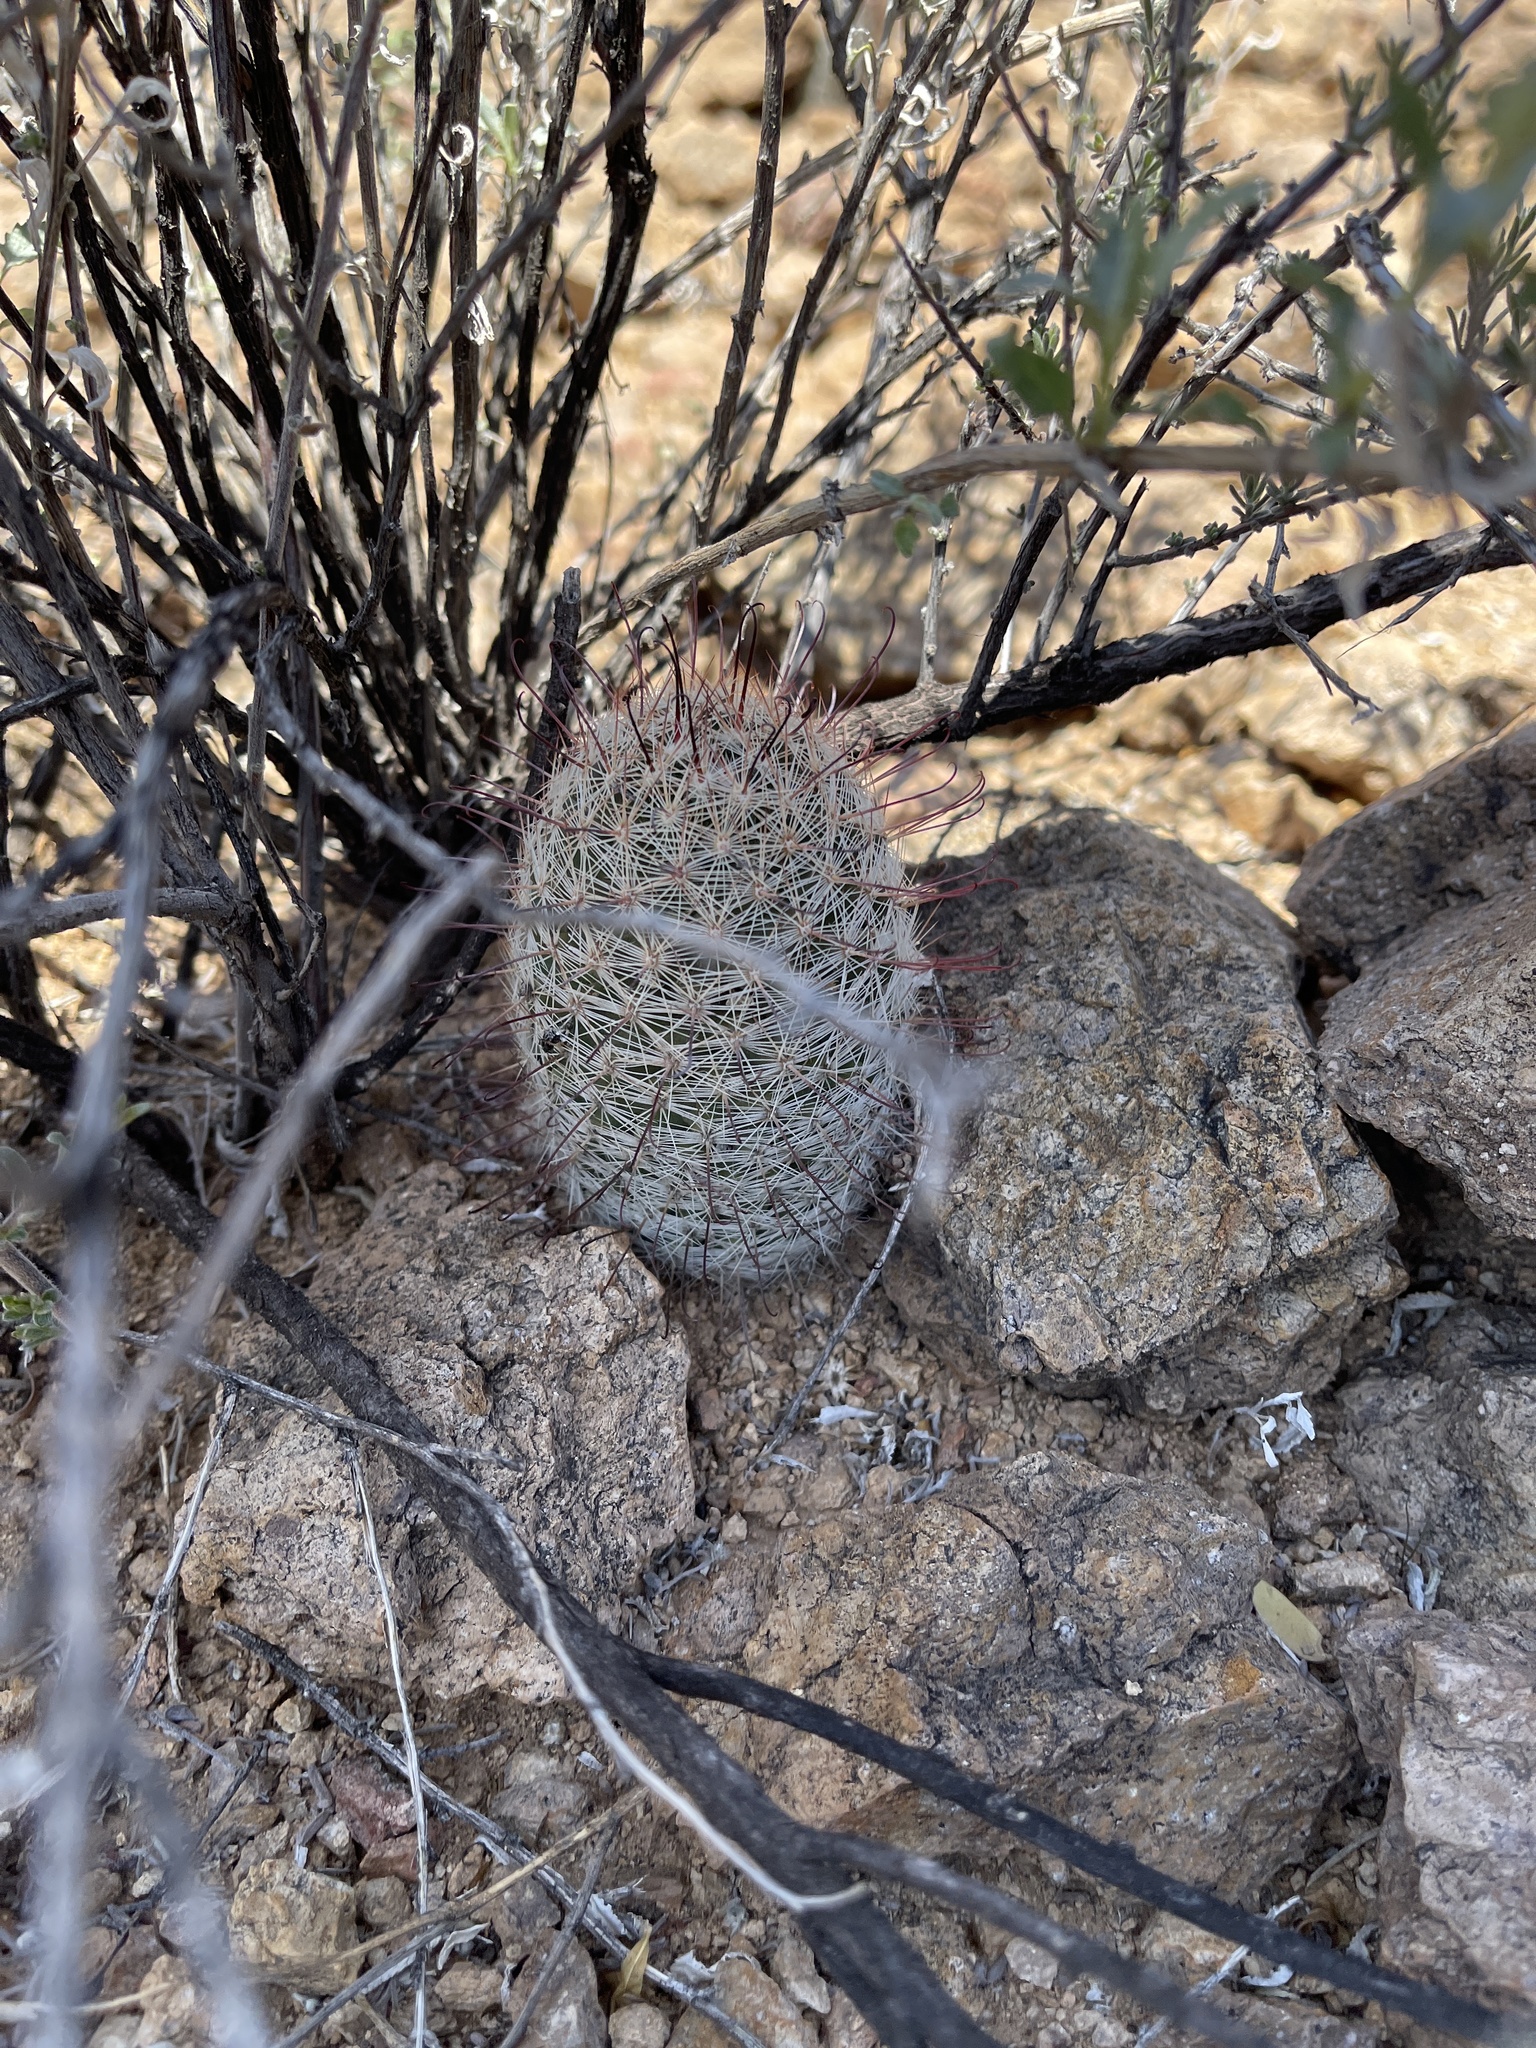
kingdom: Plantae
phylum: Tracheophyta
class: Magnoliopsida
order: Caryophyllales
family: Cactaceae
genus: Cochemiea
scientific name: Cochemiea grahamii
